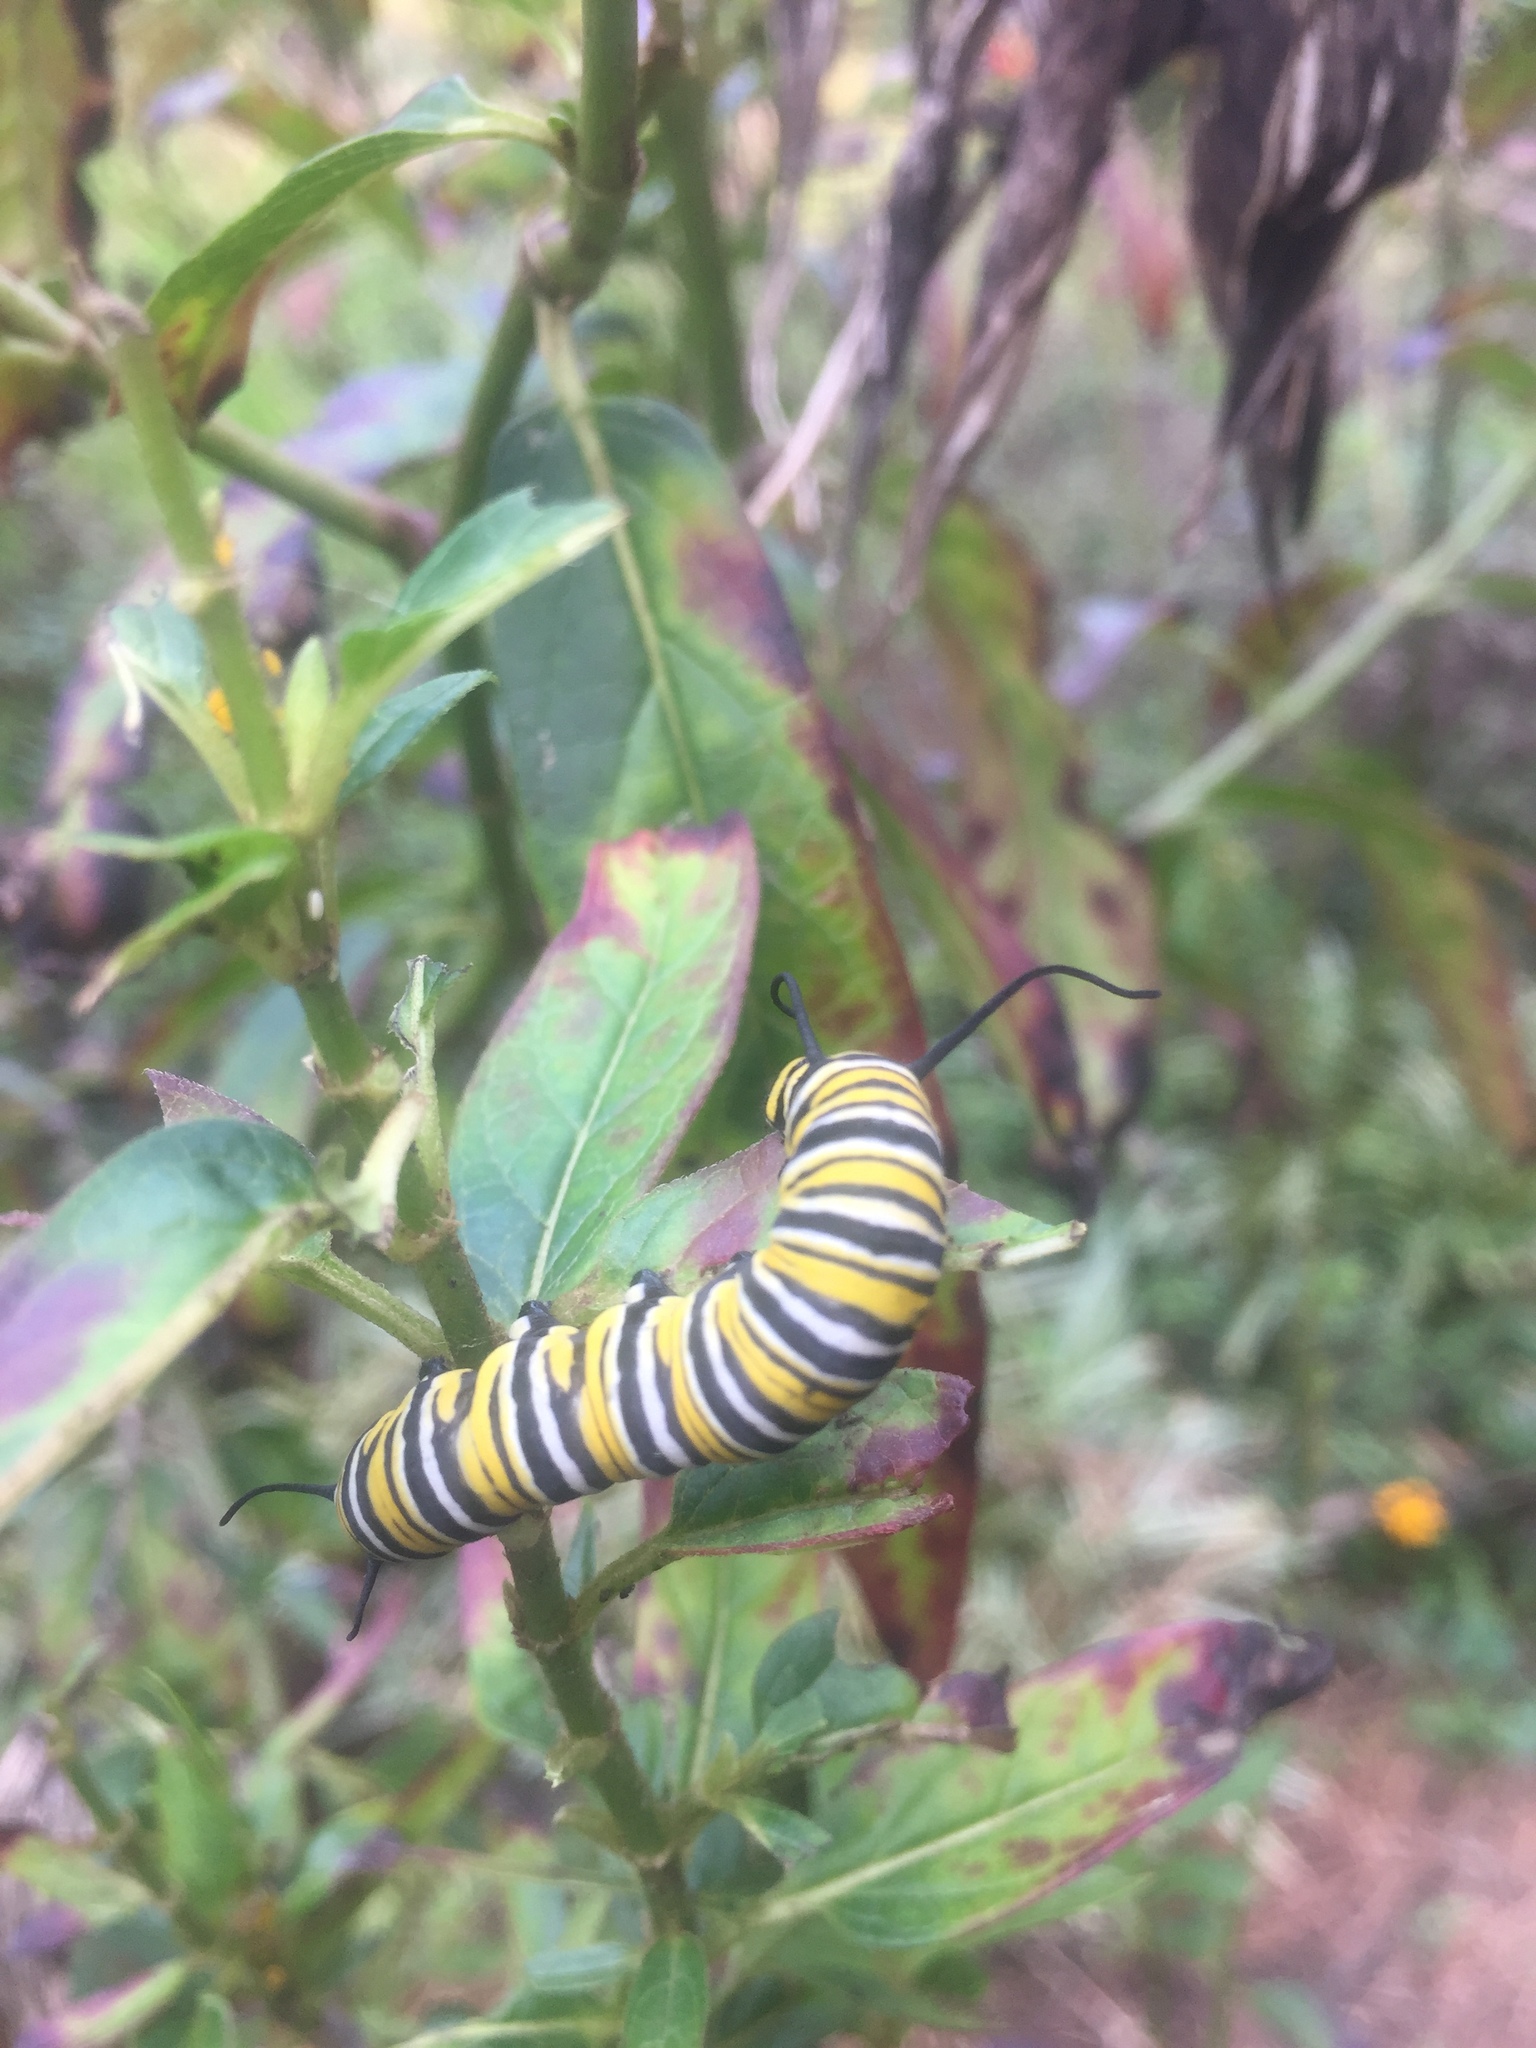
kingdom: Animalia
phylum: Arthropoda
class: Insecta
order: Lepidoptera
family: Nymphalidae
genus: Danaus
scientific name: Danaus plexippus
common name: Monarch
